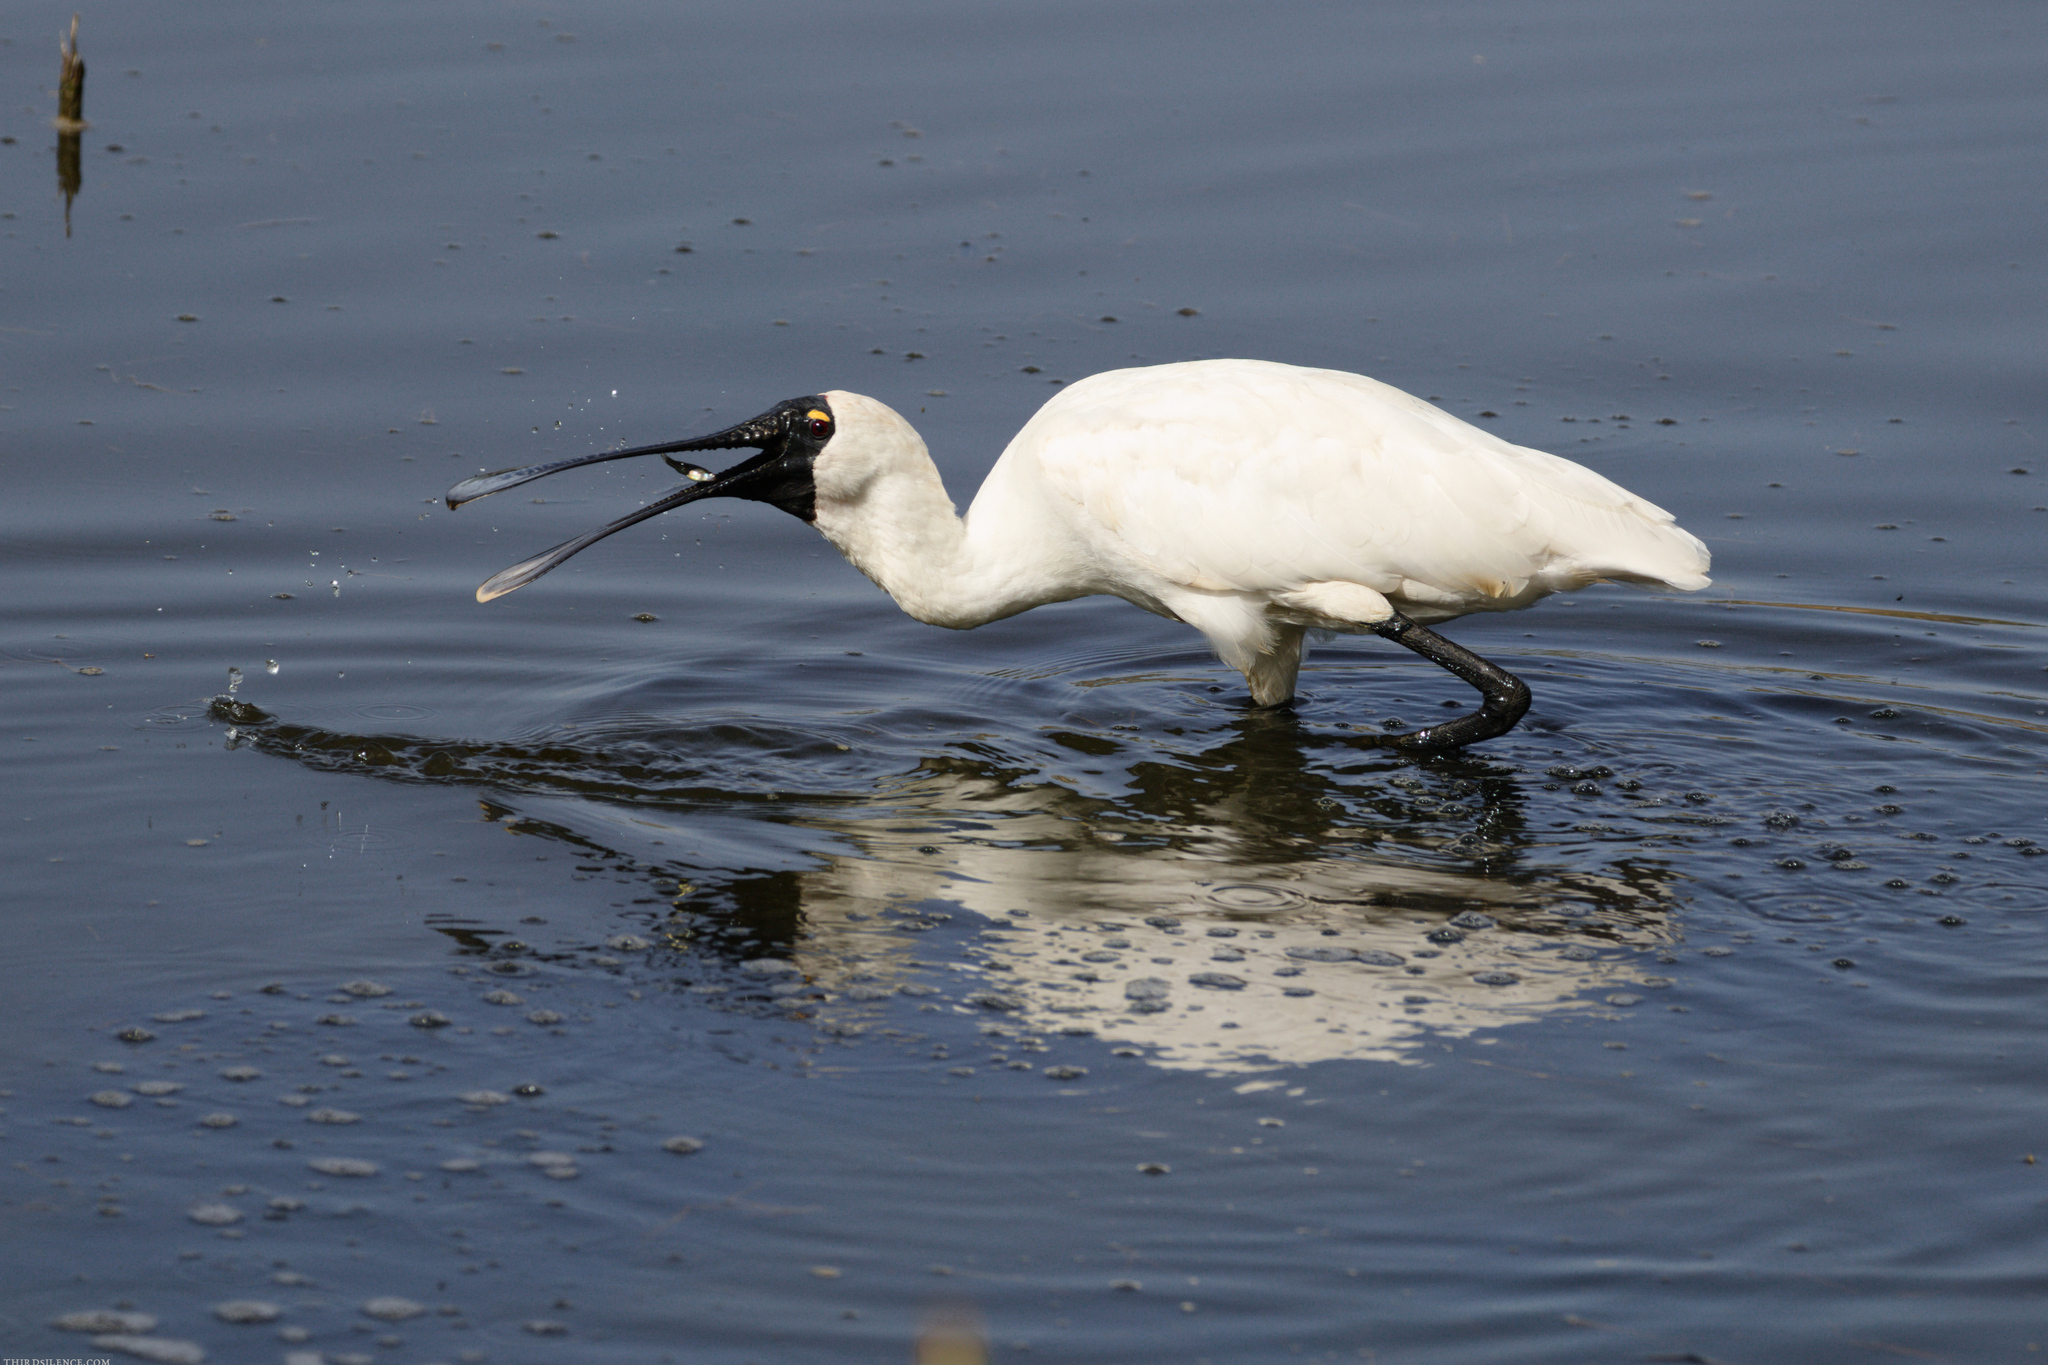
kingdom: Animalia
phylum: Chordata
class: Aves
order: Pelecaniformes
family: Threskiornithidae
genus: Platalea
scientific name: Platalea regia
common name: Royal spoonbill
